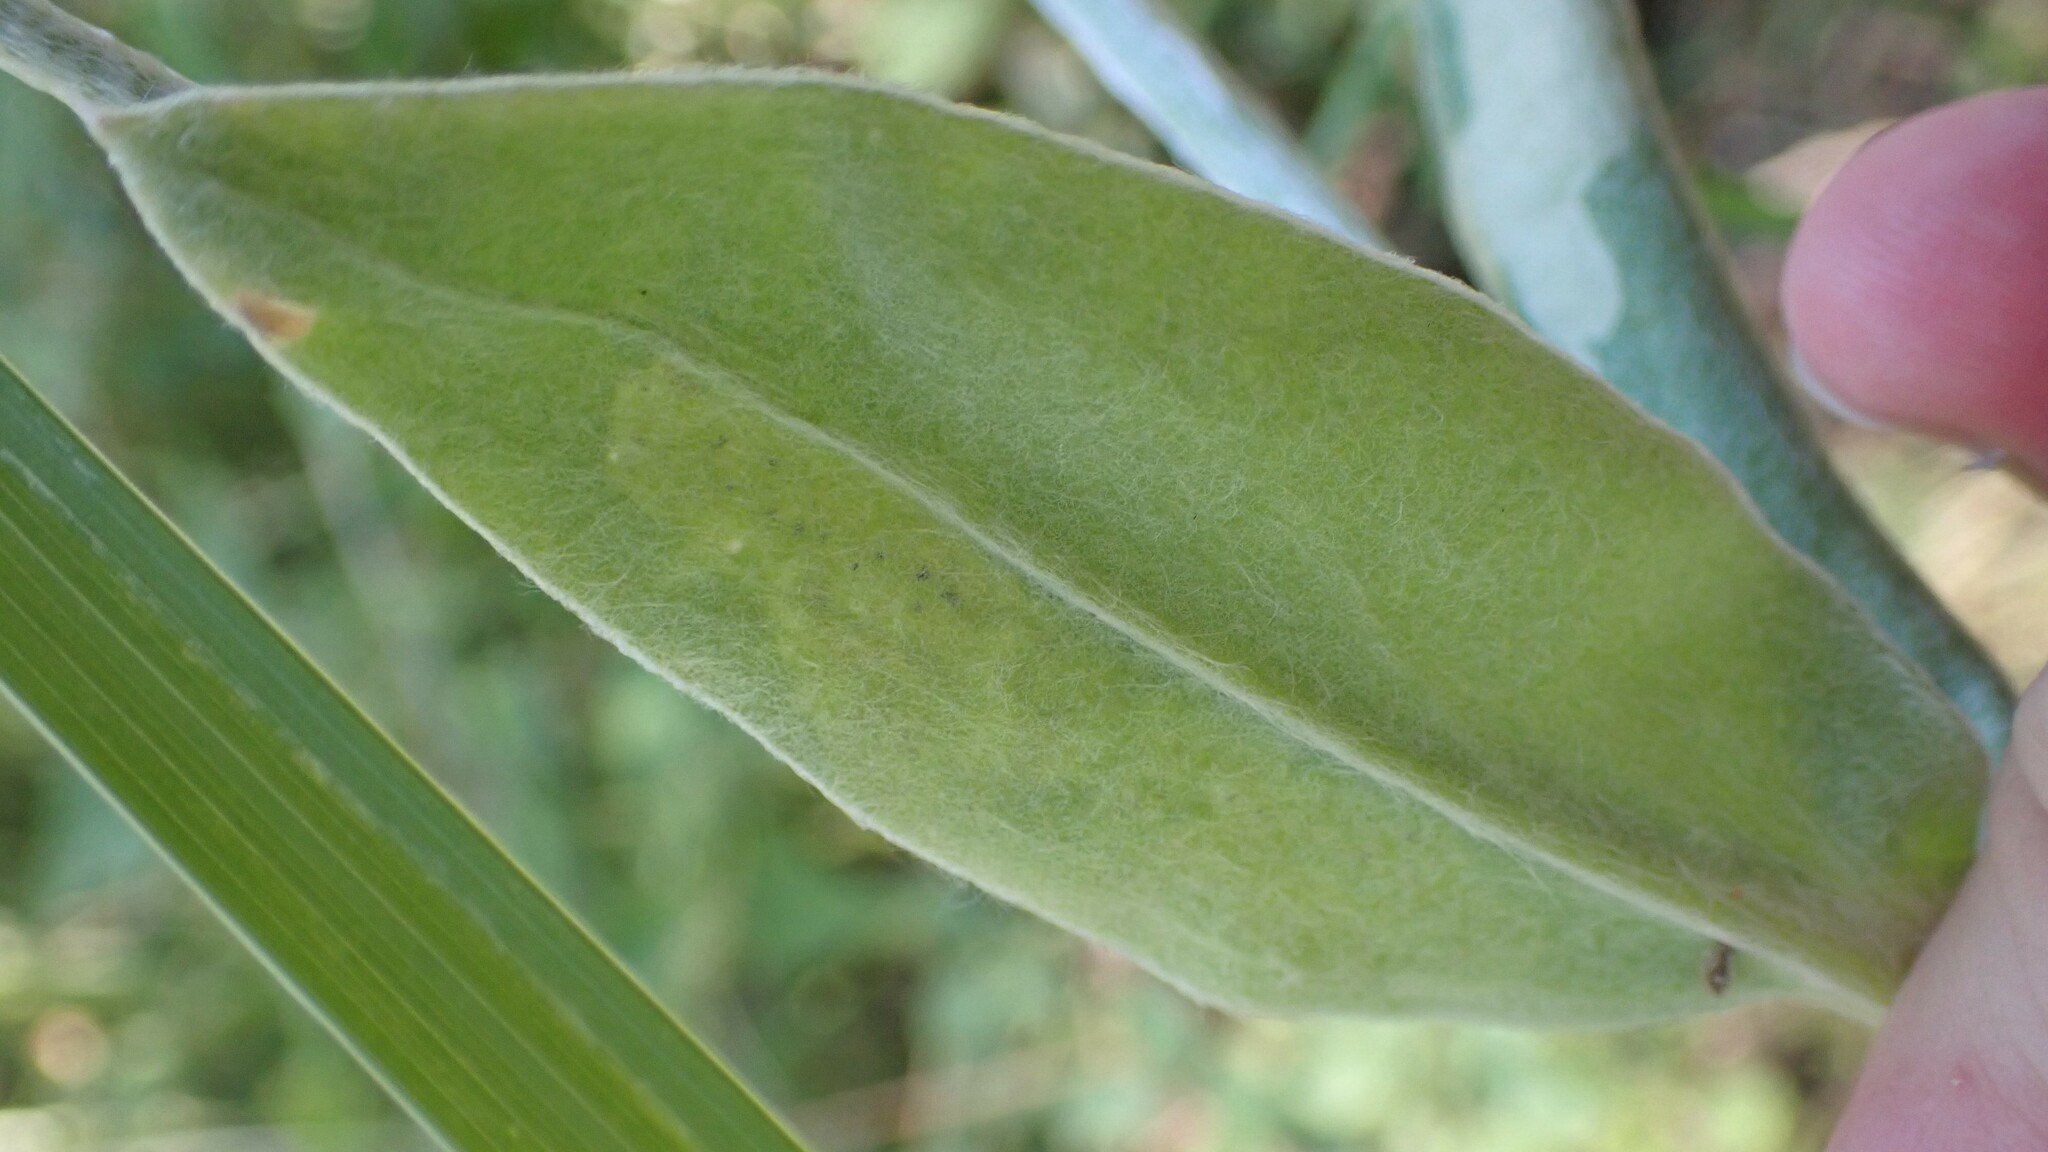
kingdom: Animalia
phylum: Arthropoda
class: Insecta
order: Diptera
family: Agromyzidae
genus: Amauromyza
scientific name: Amauromyza flavifrons
